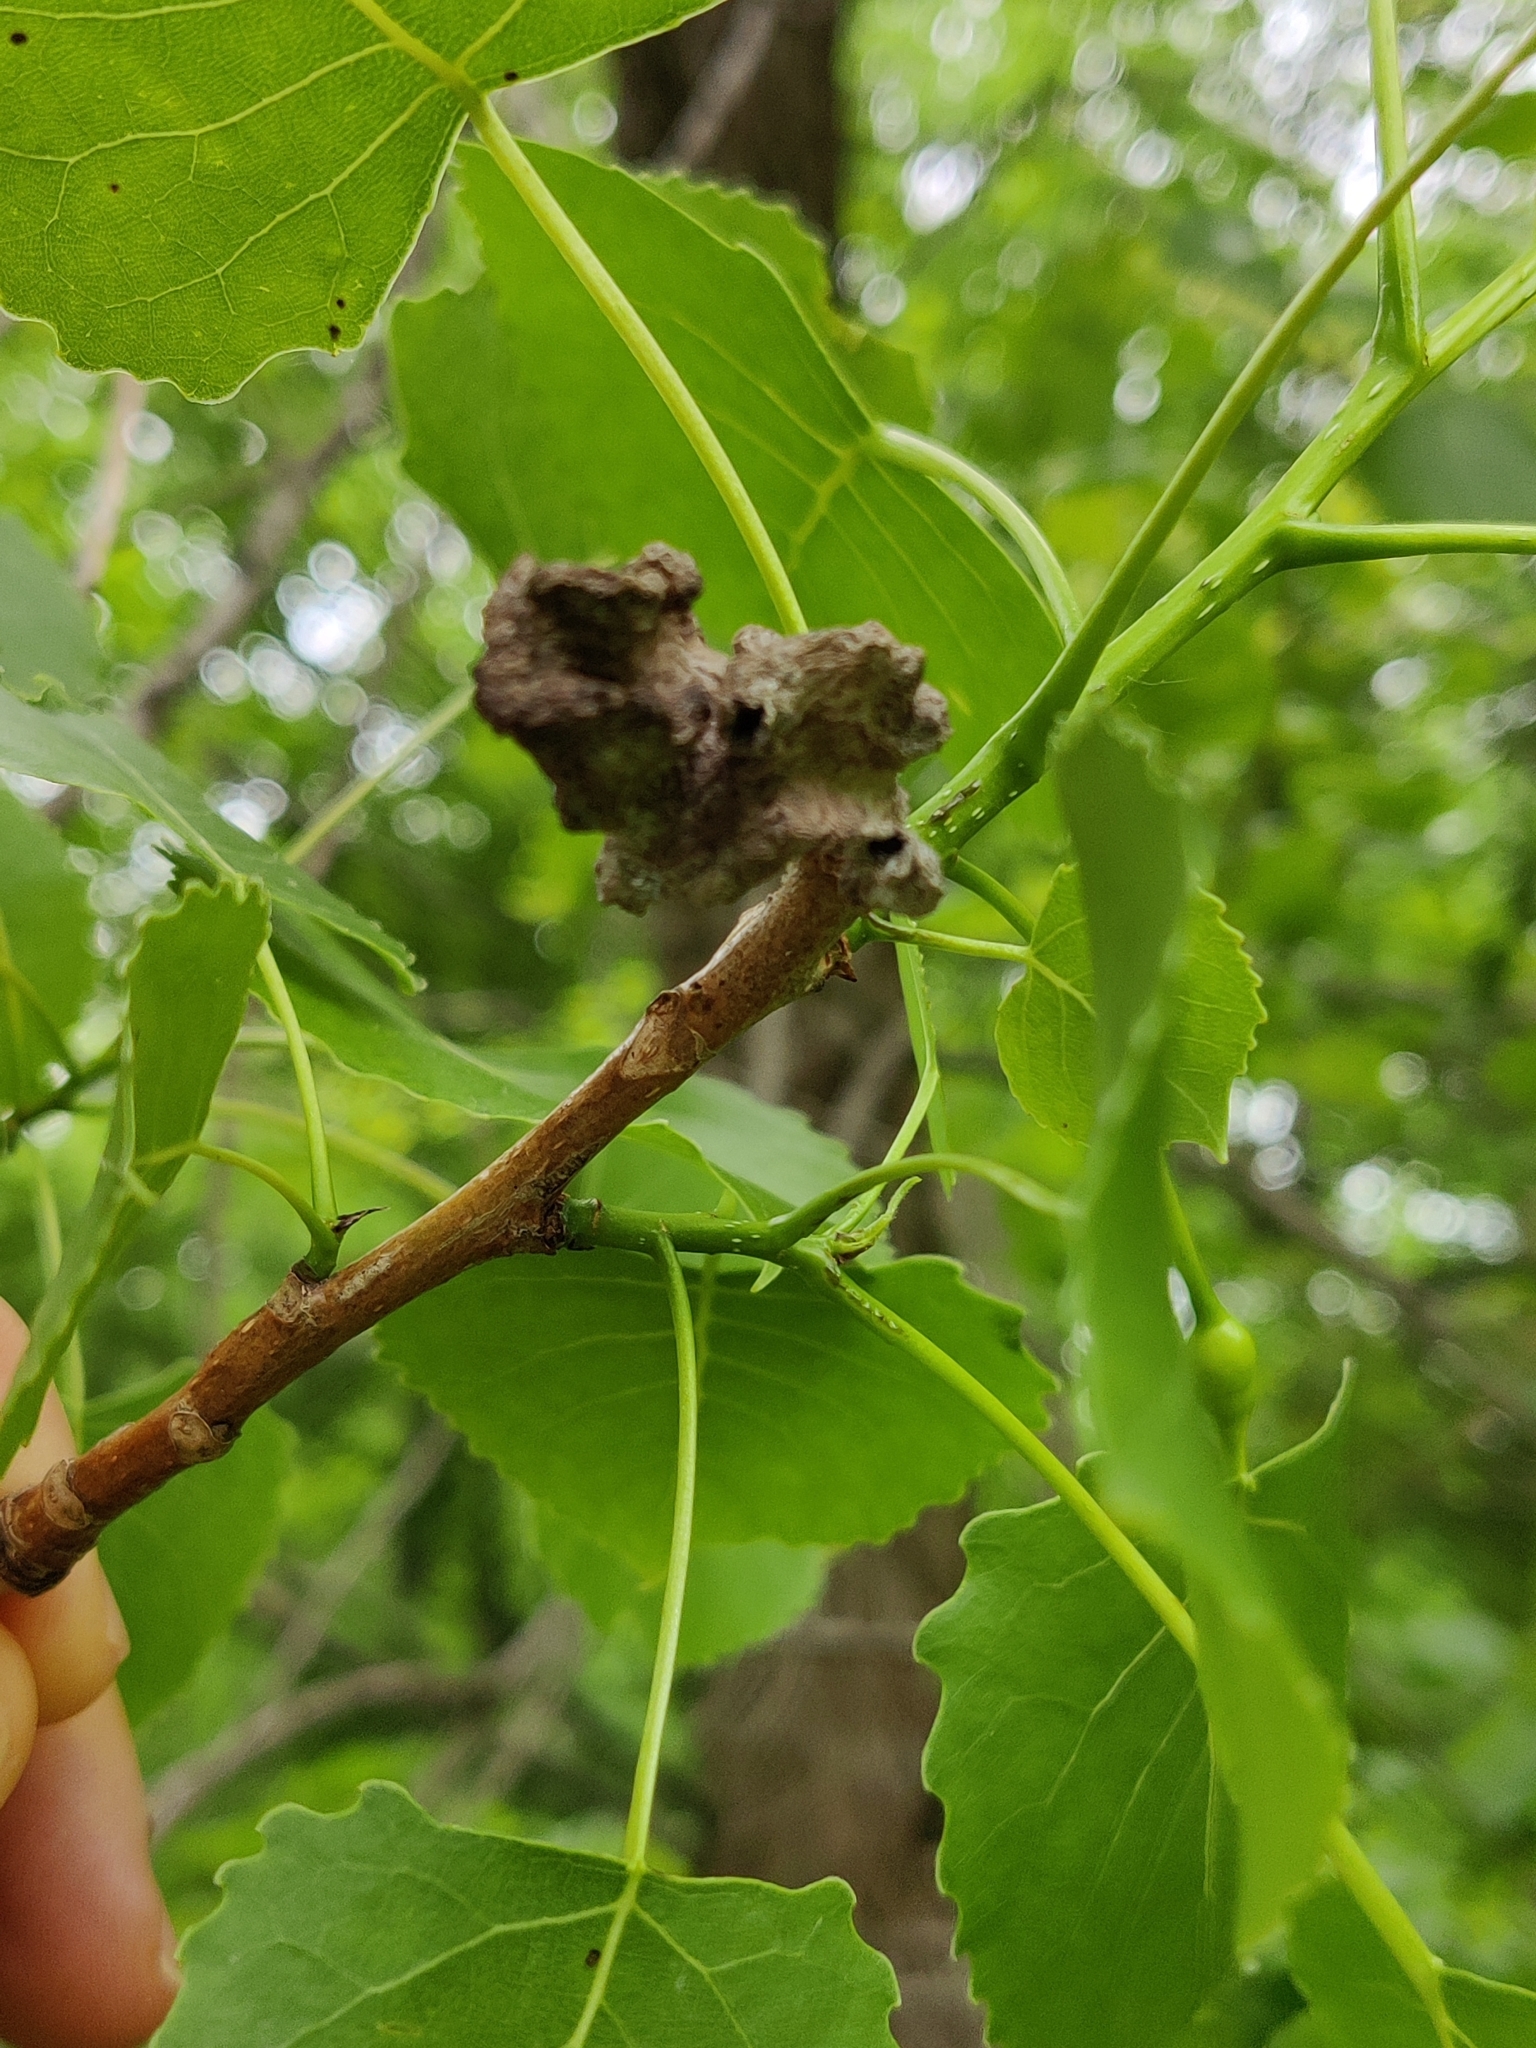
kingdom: Animalia
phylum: Arthropoda
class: Insecta
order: Hemiptera
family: Aphididae
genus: Mordwilkoja
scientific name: Mordwilkoja vagabunda
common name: Poplar vagabond aphid
